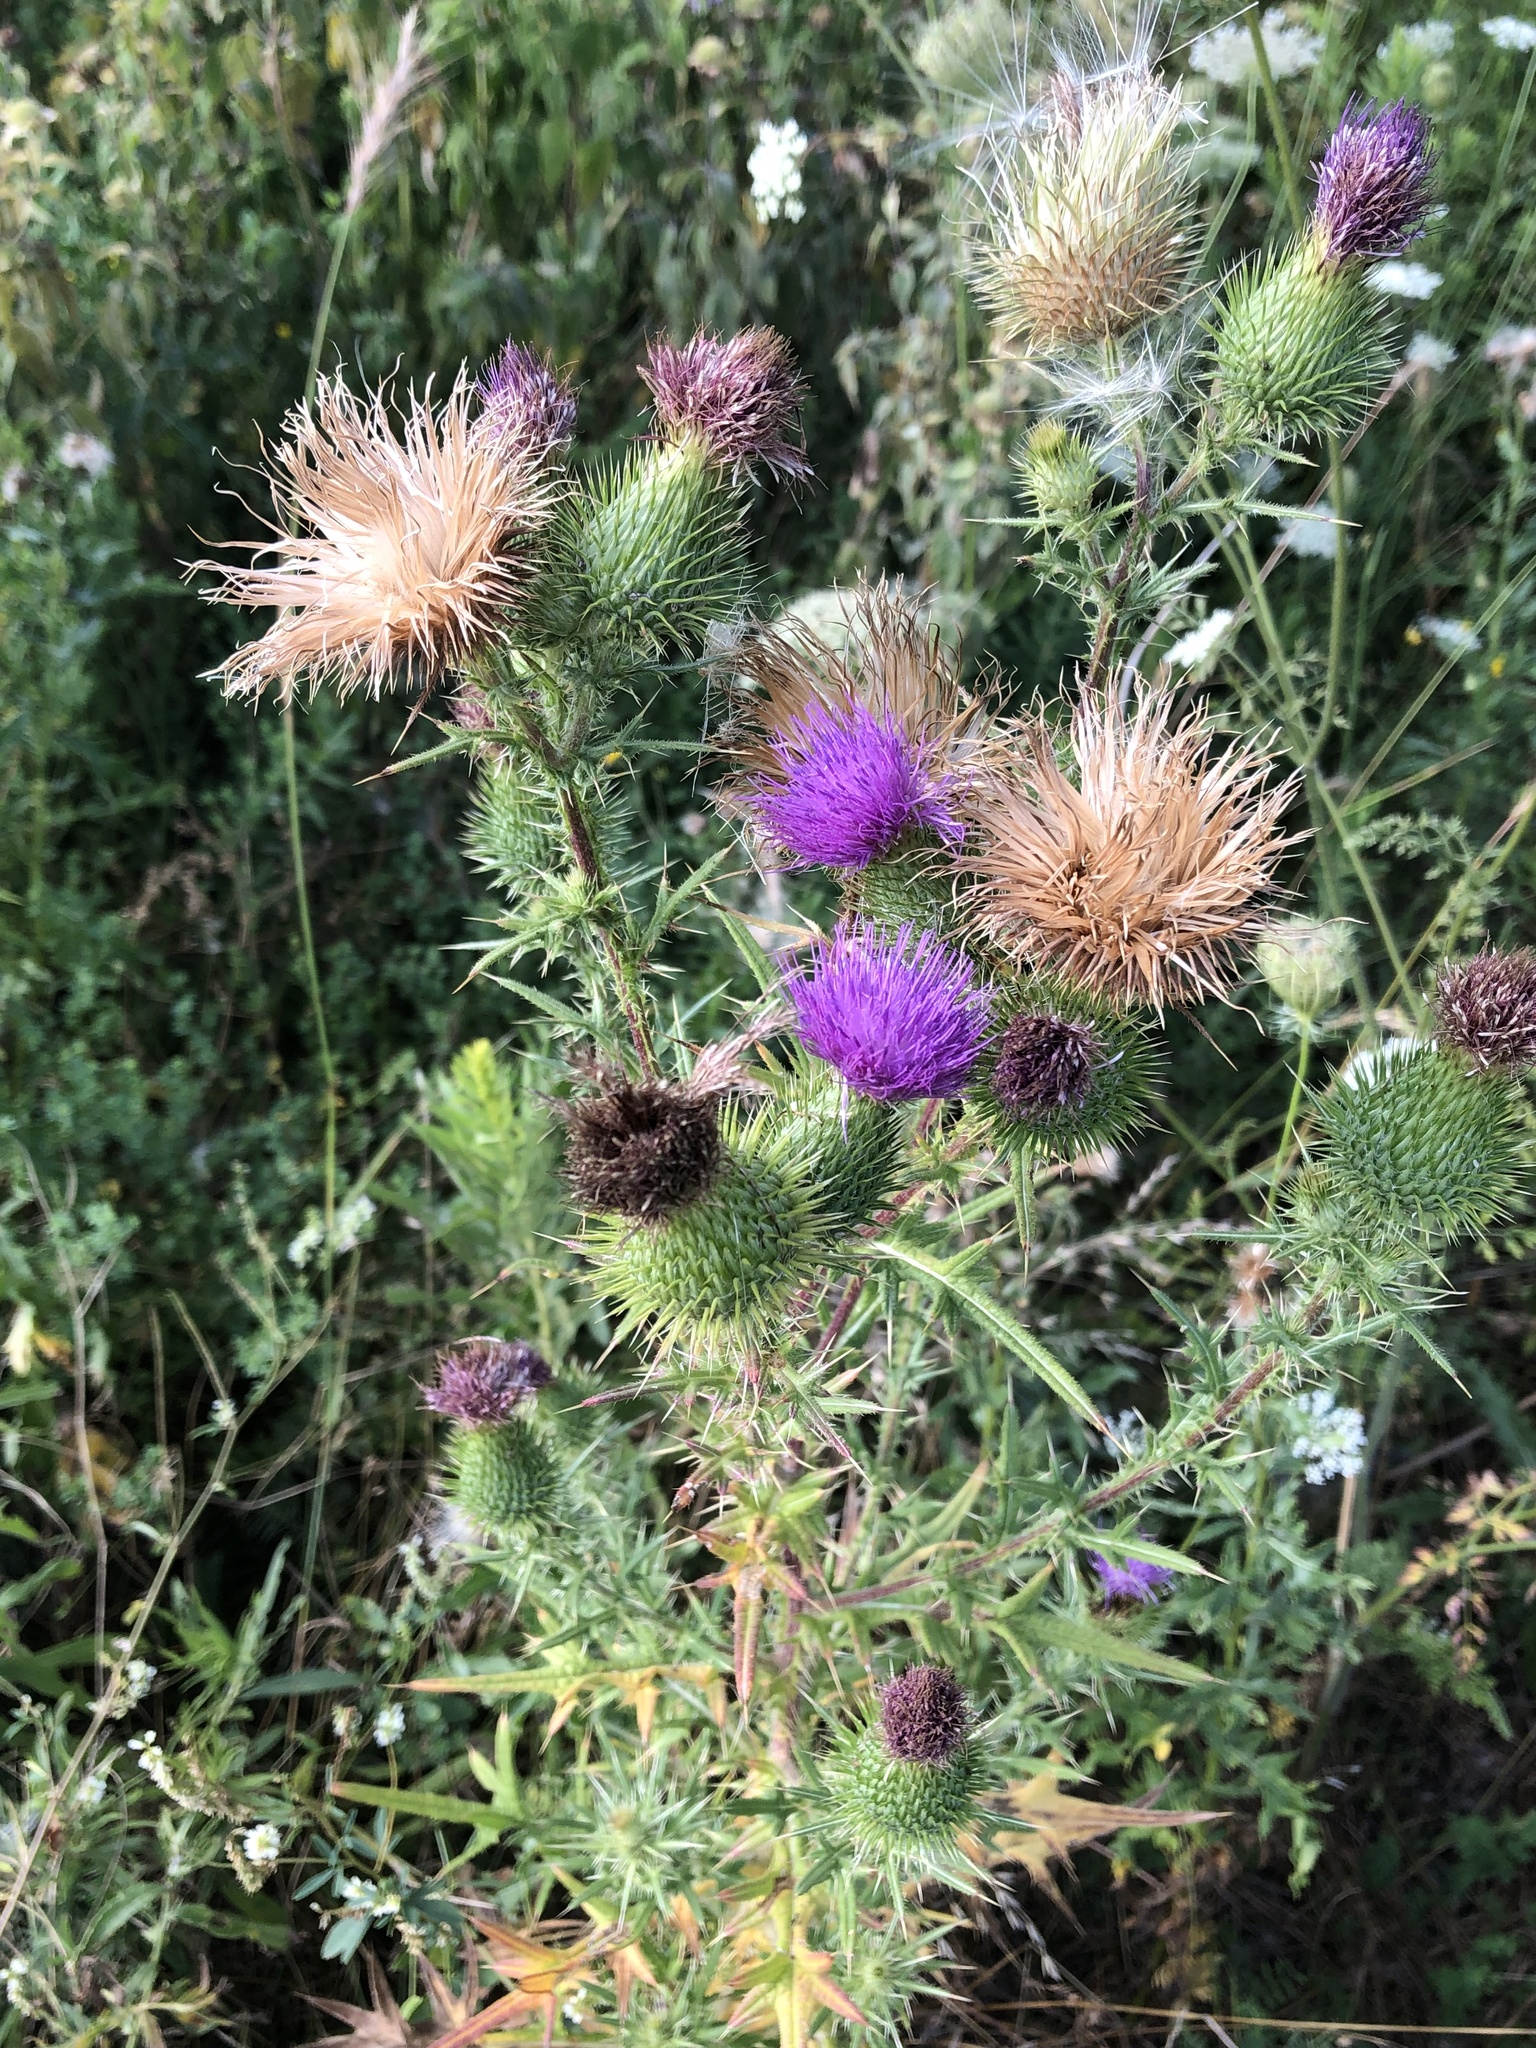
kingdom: Plantae
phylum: Tracheophyta
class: Magnoliopsida
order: Asterales
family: Asteraceae
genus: Cirsium
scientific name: Cirsium vulgare
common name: Bull thistle
